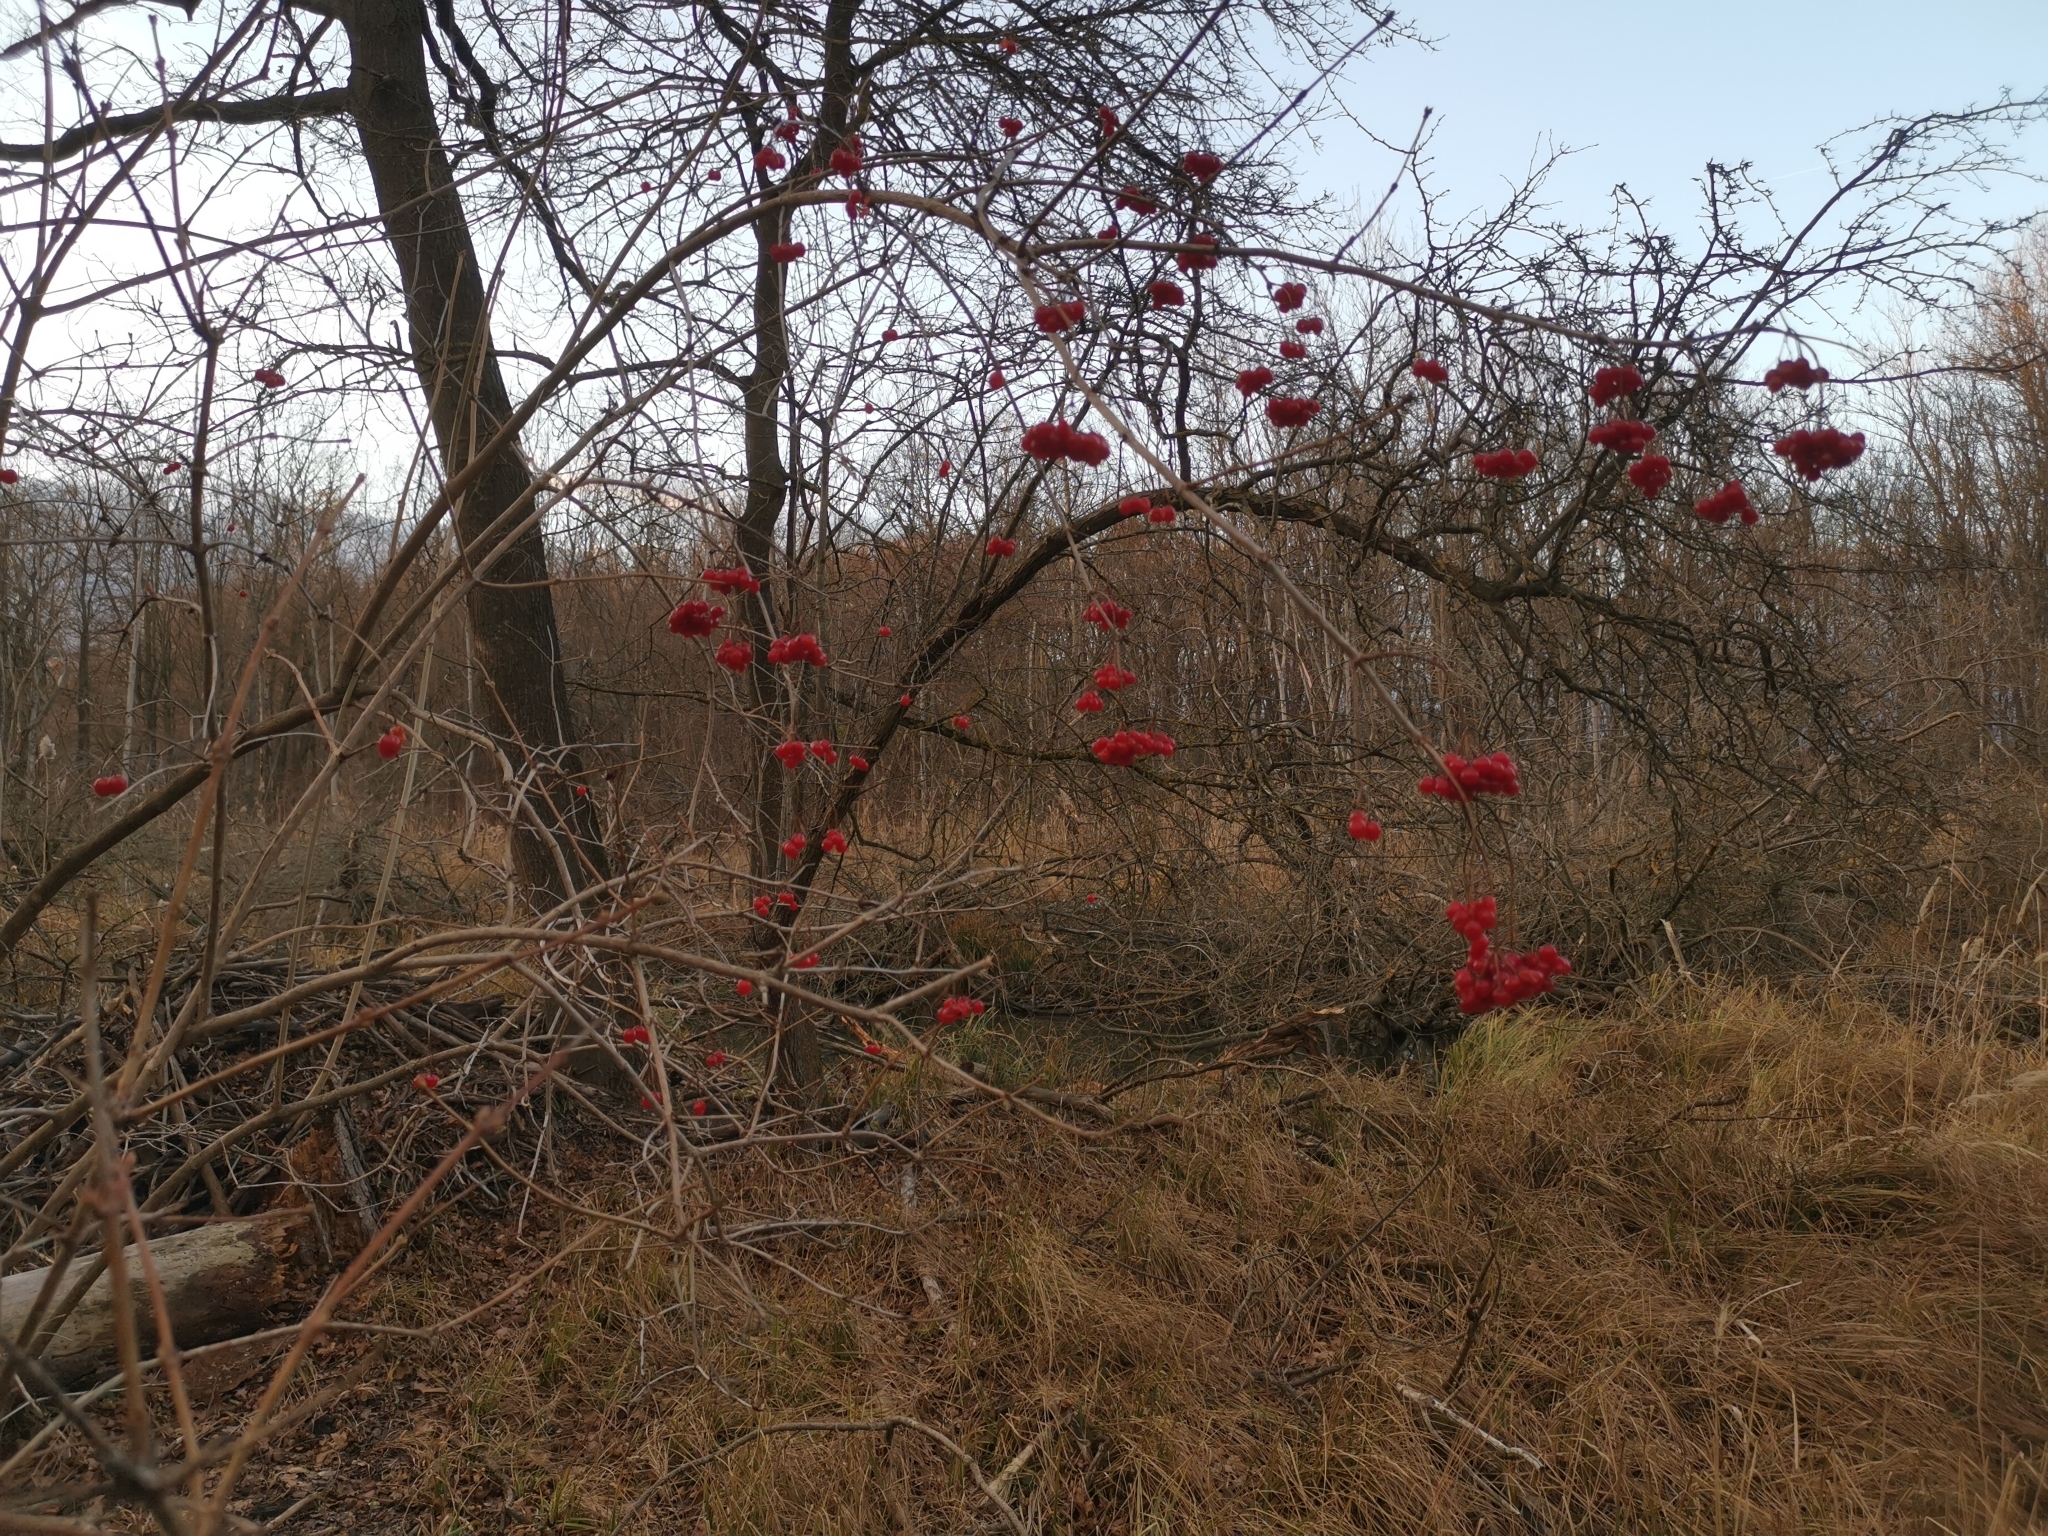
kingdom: Plantae
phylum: Tracheophyta
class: Magnoliopsida
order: Dipsacales
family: Viburnaceae
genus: Viburnum
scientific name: Viburnum opulus
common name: Guelder-rose
